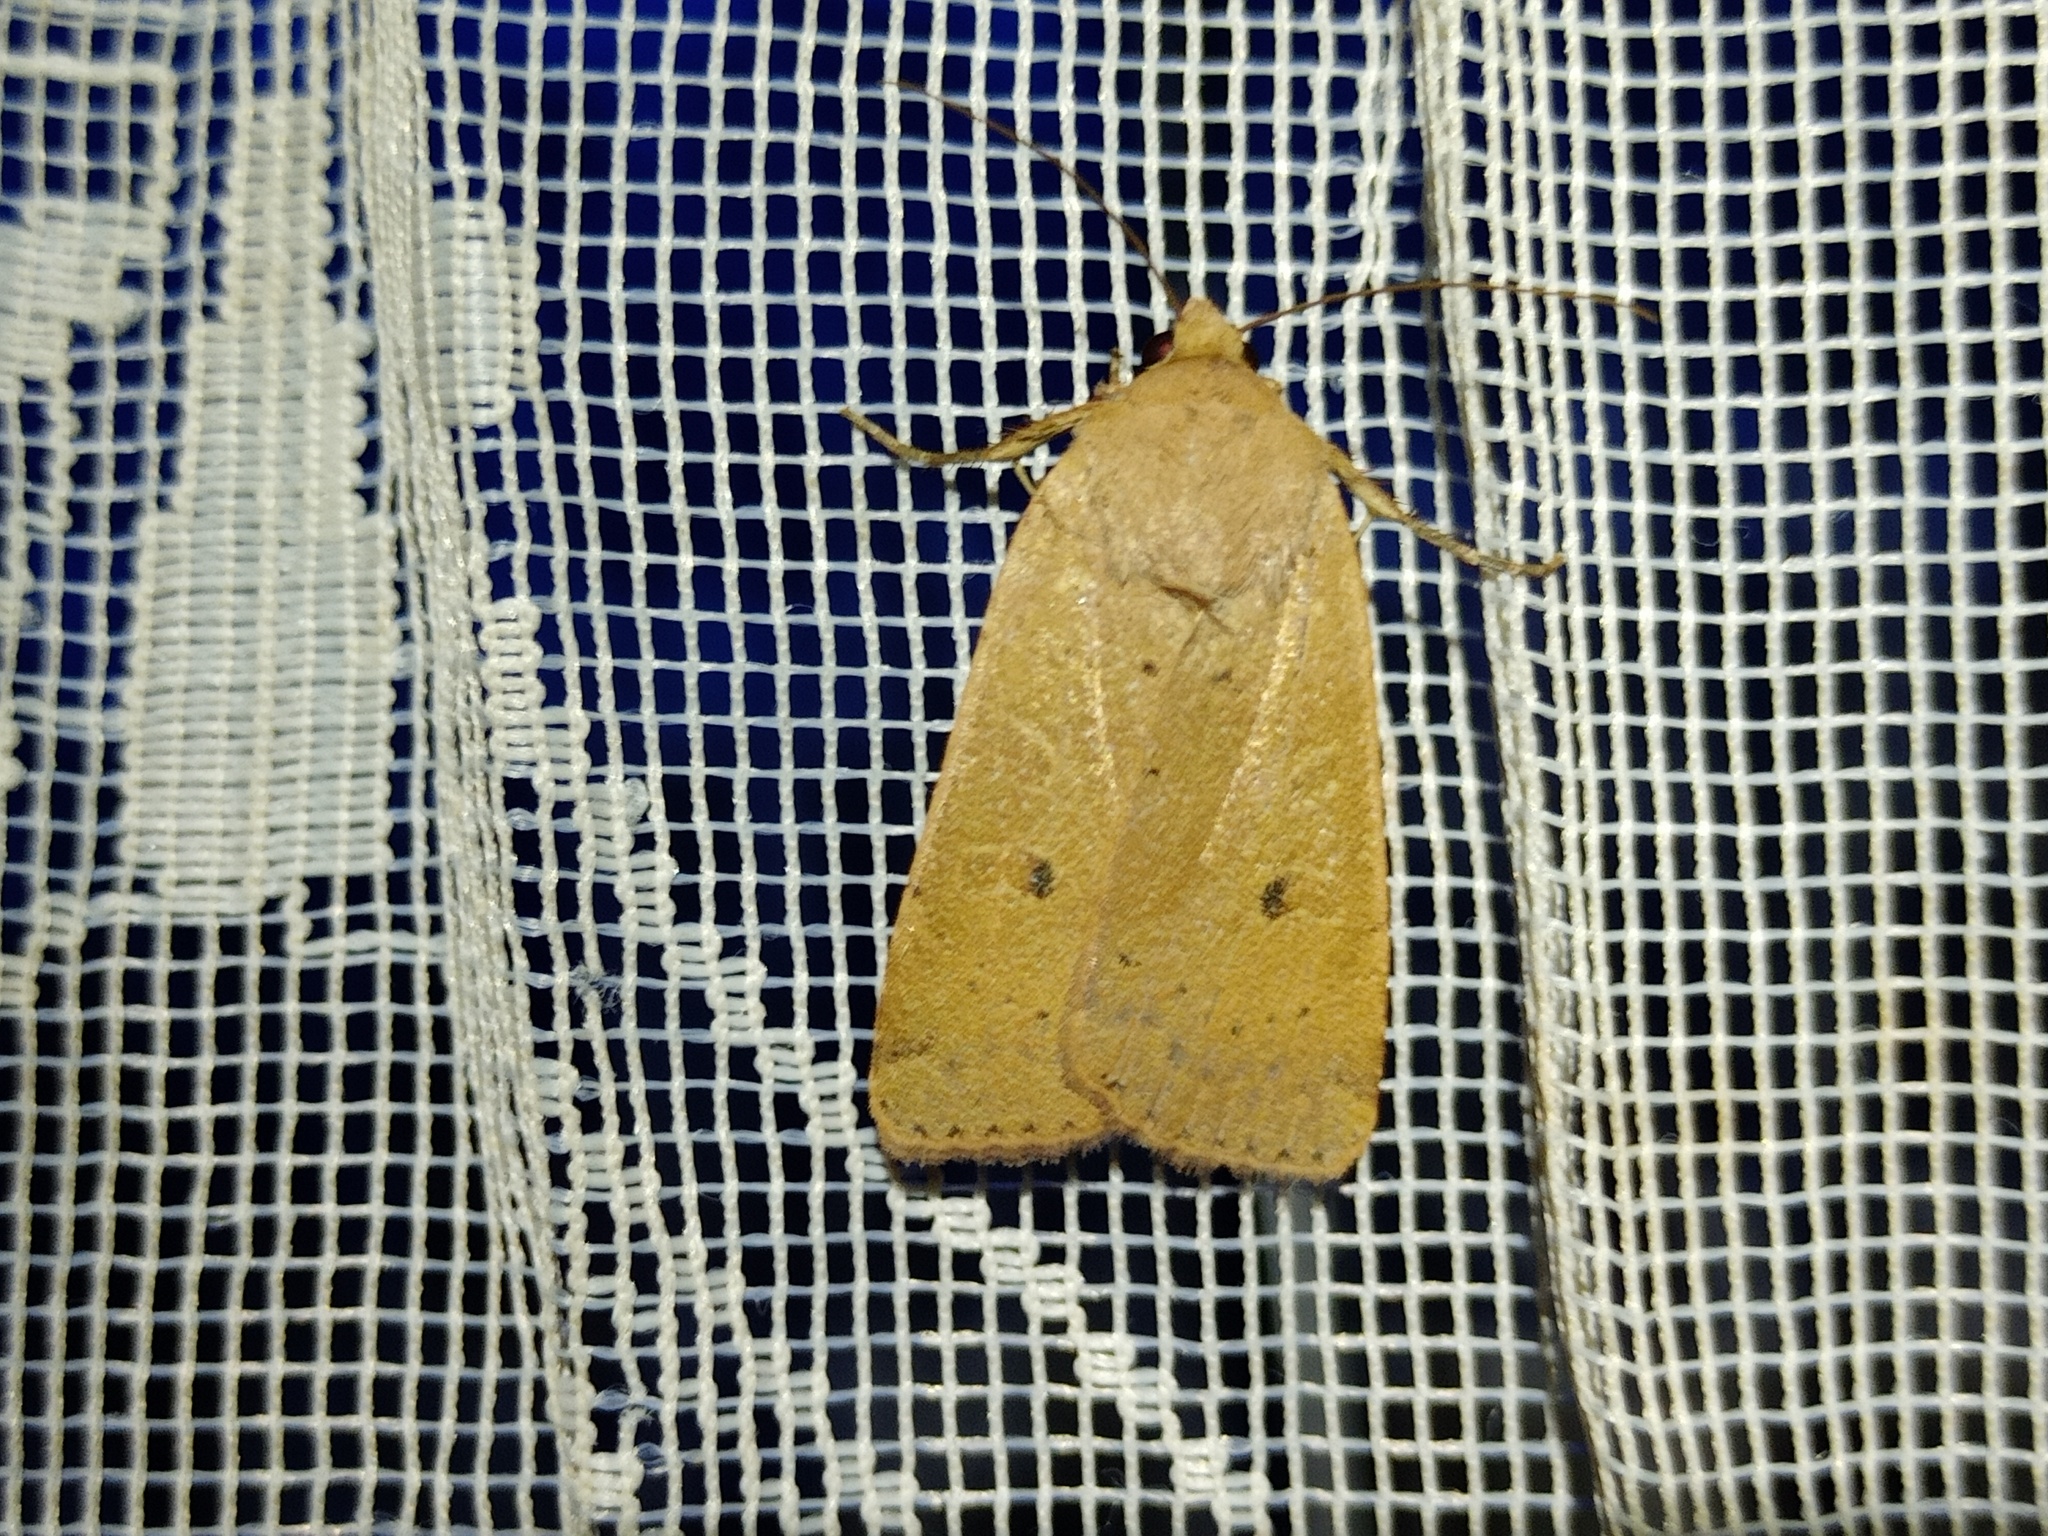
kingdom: Animalia
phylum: Arthropoda
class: Insecta
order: Lepidoptera
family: Noctuidae
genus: Noctua
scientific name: Noctua comes
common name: Lesser yellow underwing
